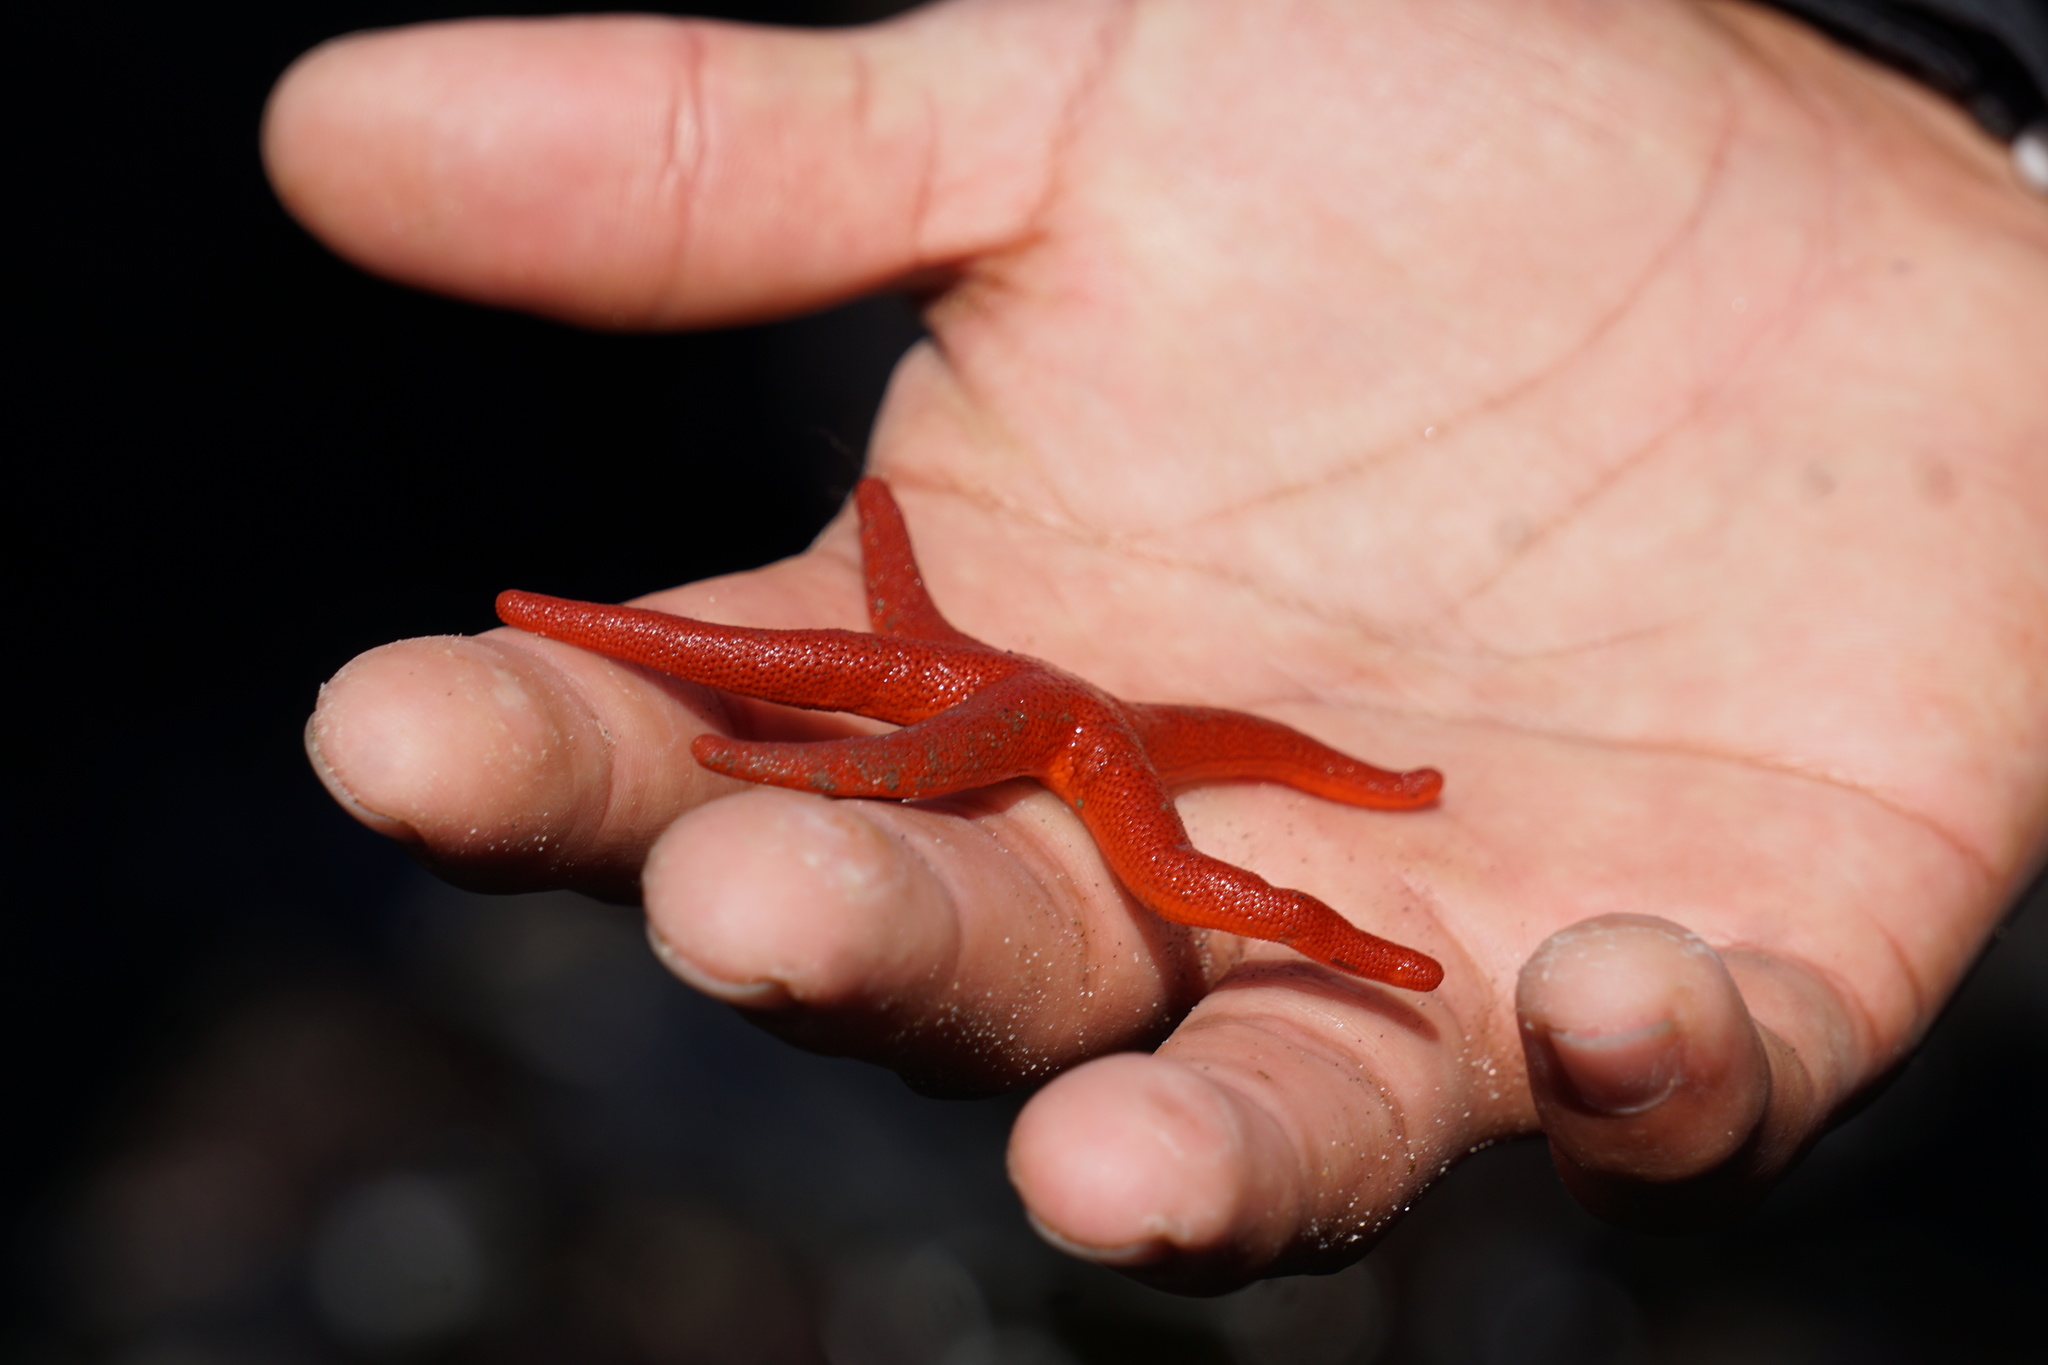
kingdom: Animalia
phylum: Echinodermata
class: Asteroidea
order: Spinulosida
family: Echinasteridae
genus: Henricia
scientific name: Henricia
